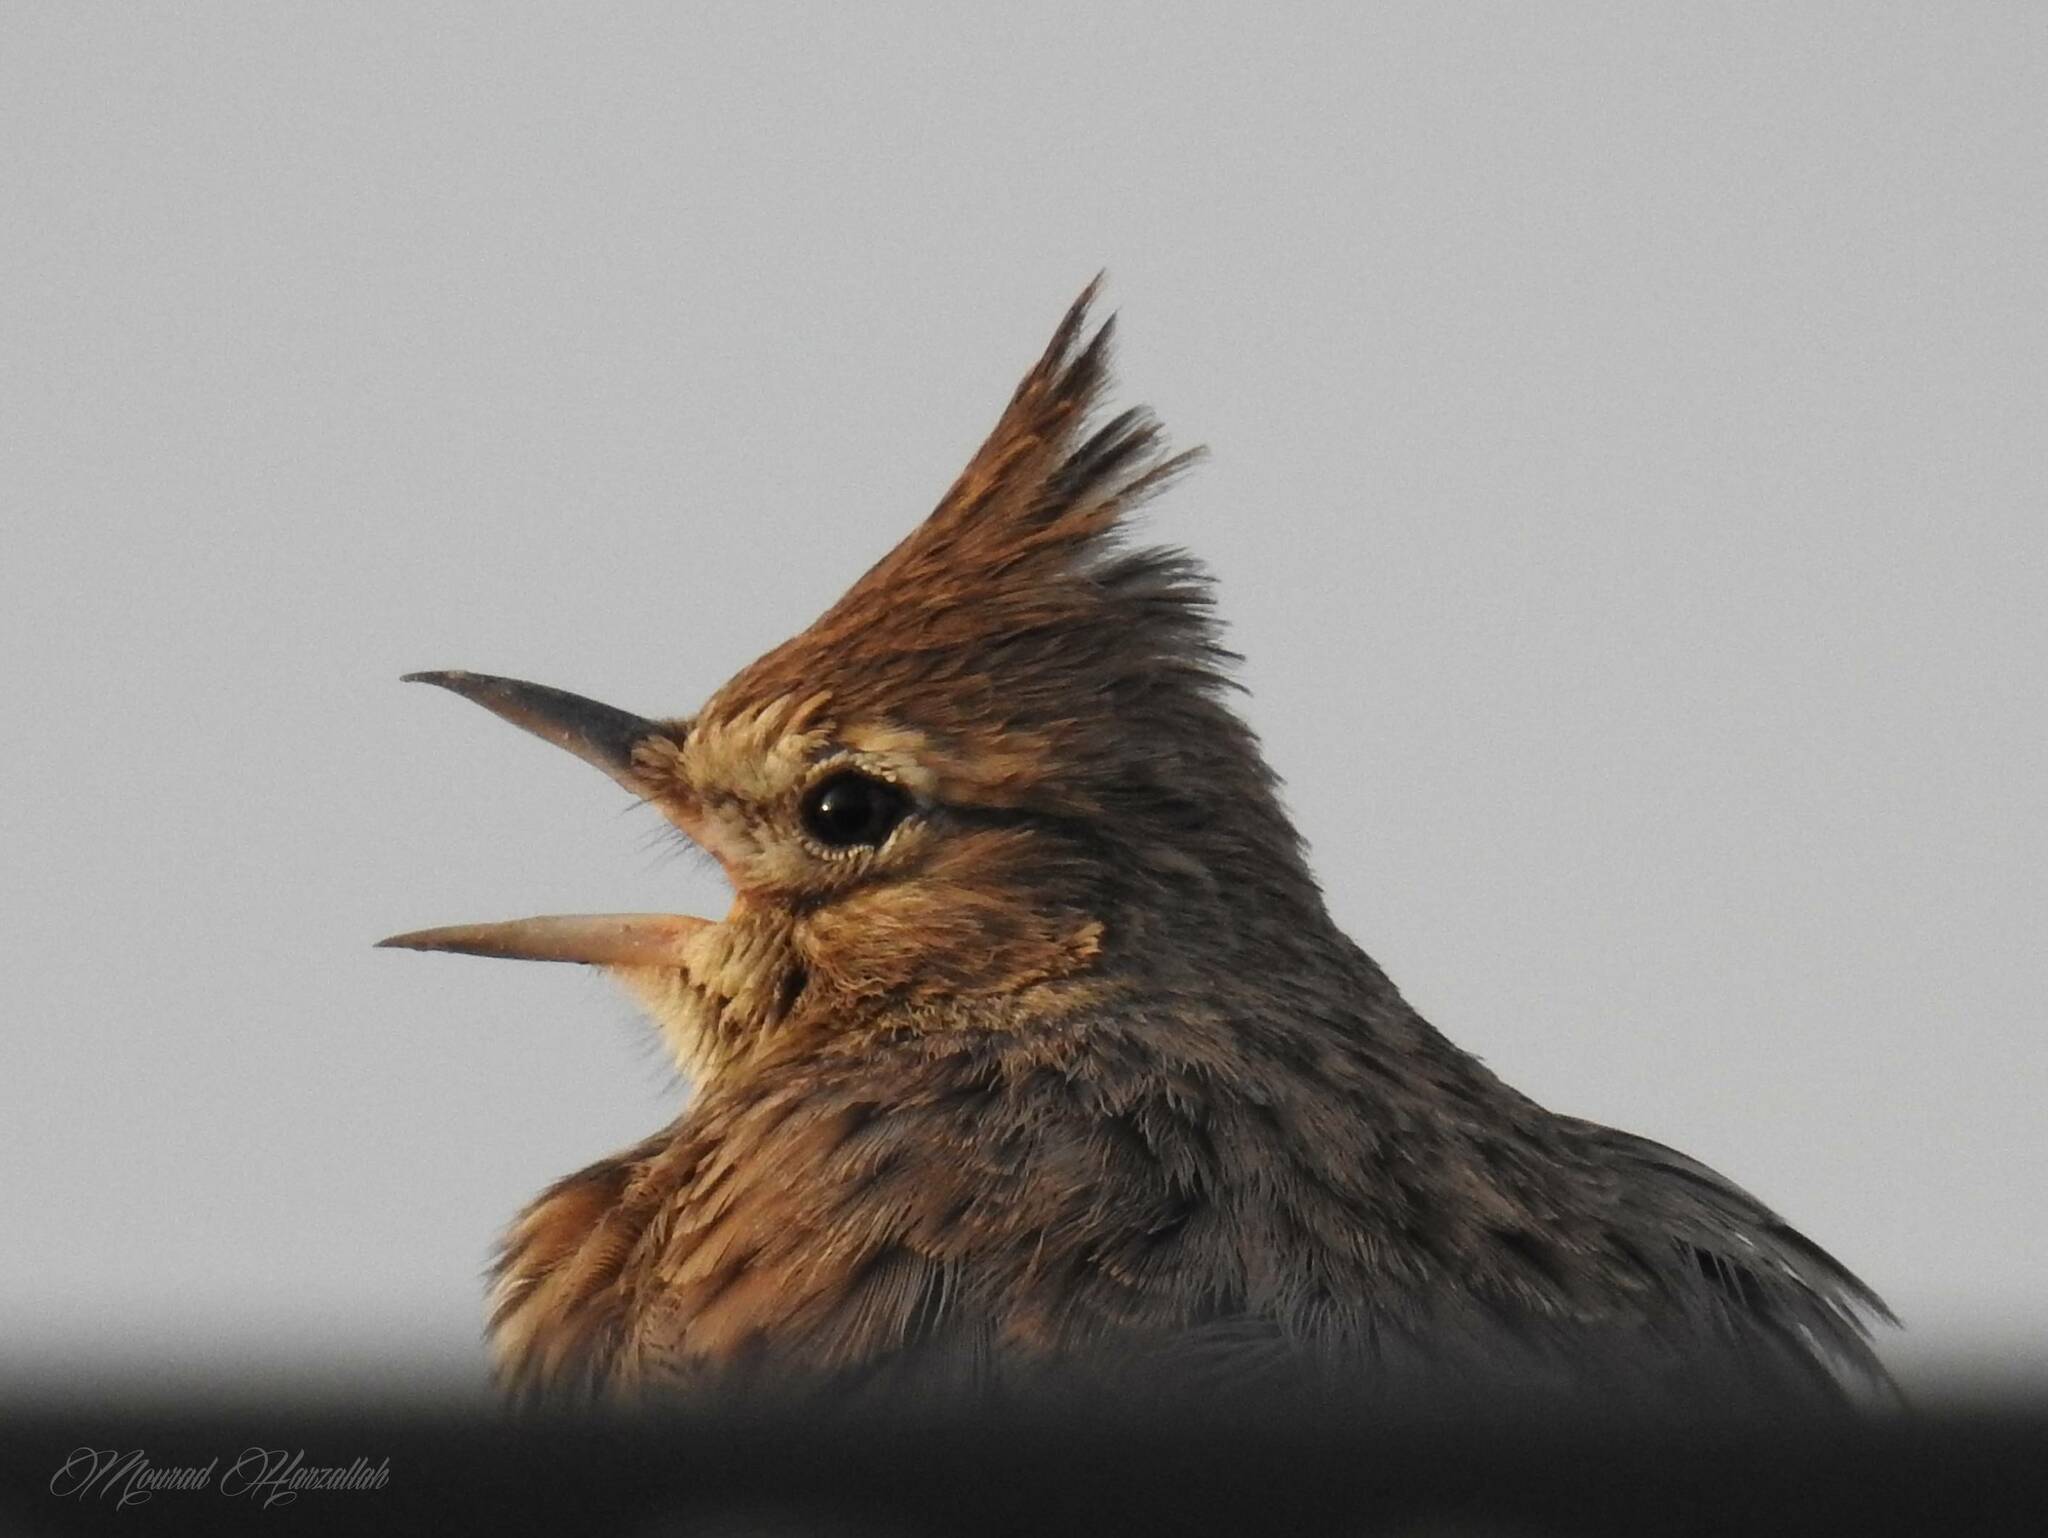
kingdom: Animalia
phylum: Chordata
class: Aves
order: Passeriformes
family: Alaudidae
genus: Galerida
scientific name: Galerida theklae
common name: Thekla lark
